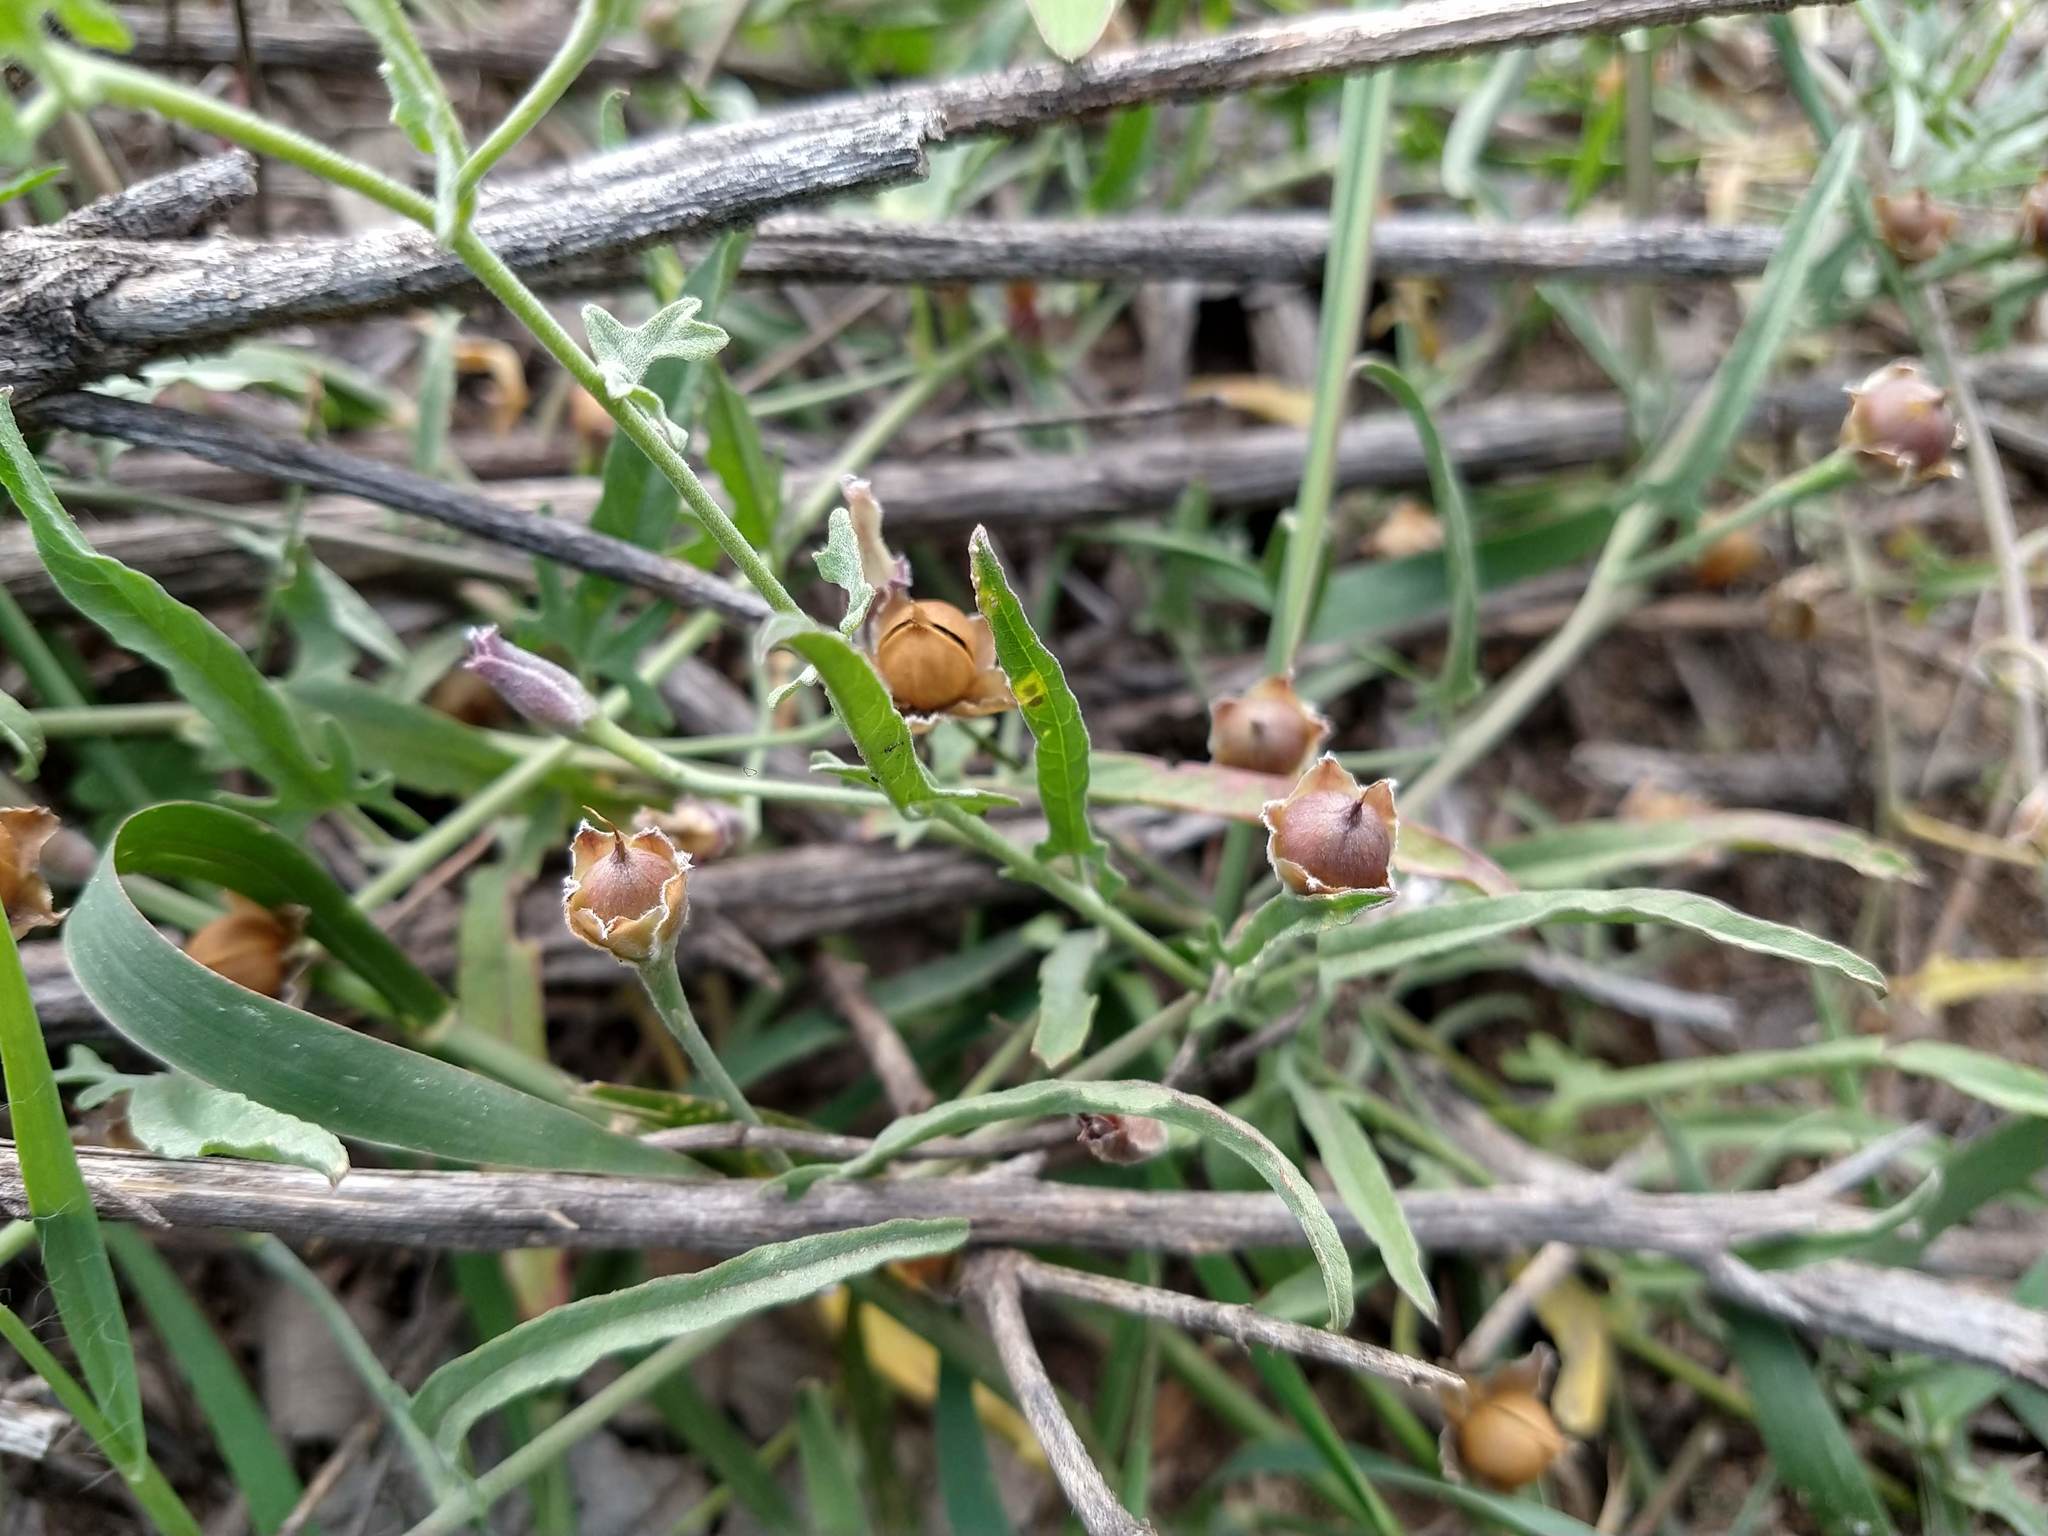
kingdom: Plantae
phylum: Tracheophyta
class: Magnoliopsida
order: Solanales
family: Convolvulaceae
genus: Convolvulus
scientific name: Convolvulus equitans
